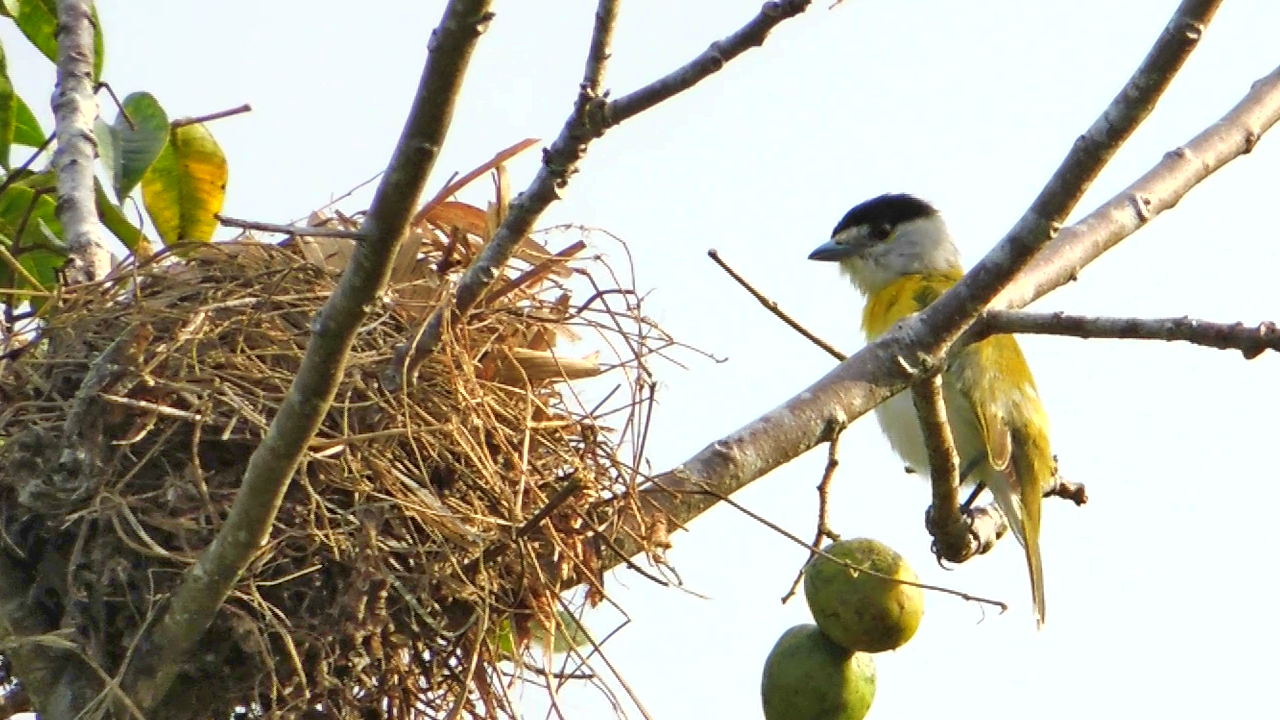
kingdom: Animalia
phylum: Chordata
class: Aves
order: Passeriformes
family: Cotingidae
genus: Pachyramphus
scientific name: Pachyramphus viridis
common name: Green-backed becard
